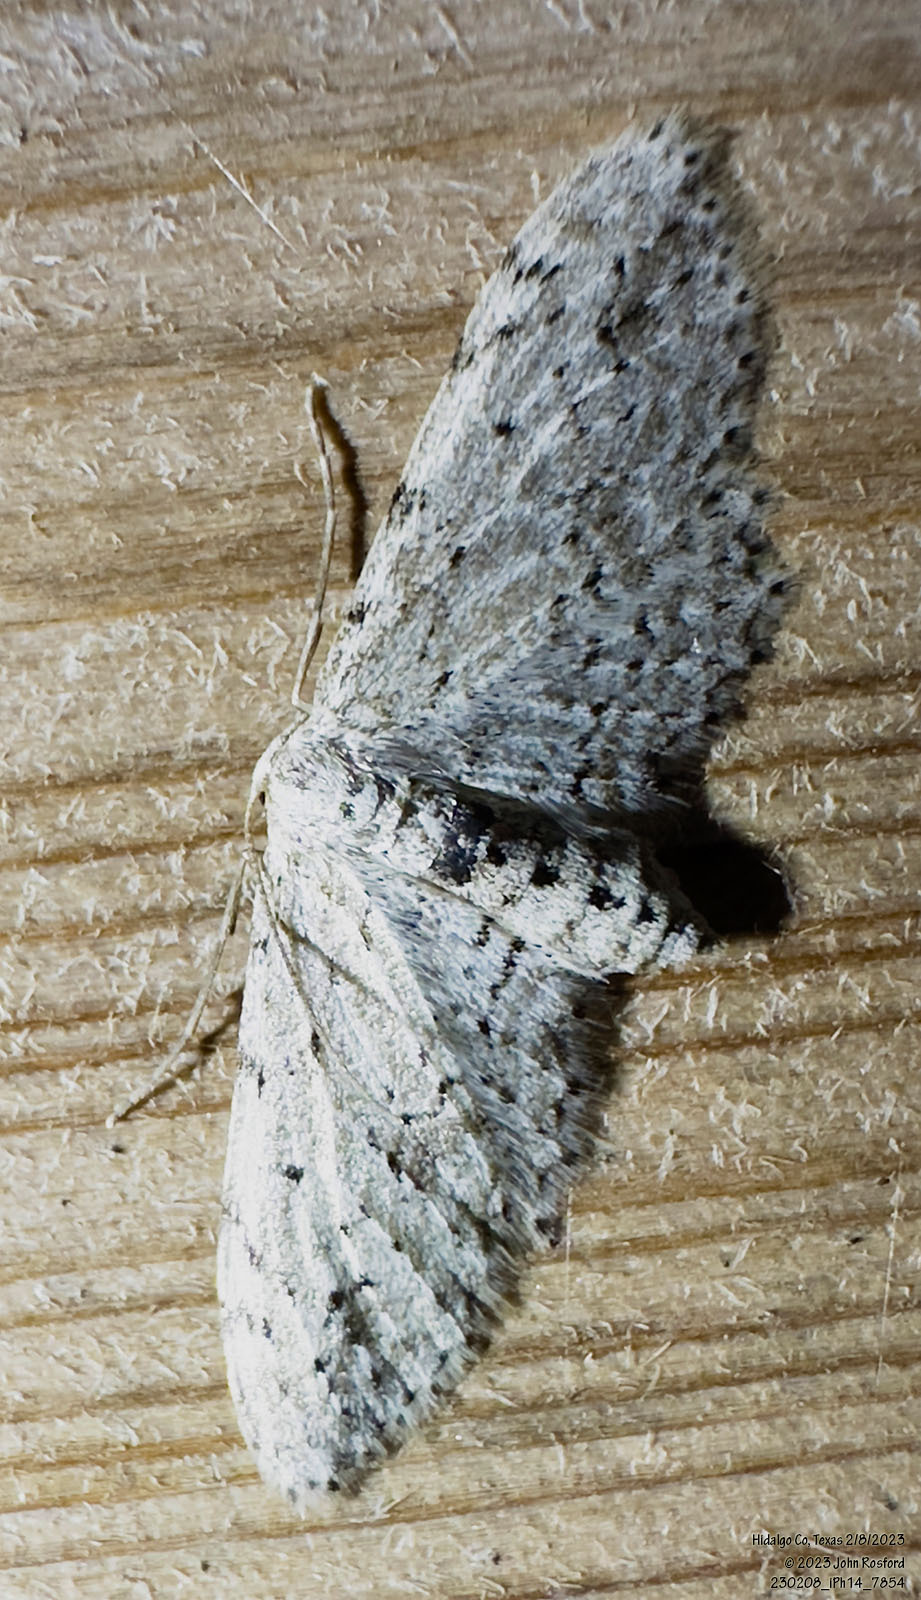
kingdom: Animalia
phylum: Arthropoda
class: Insecta
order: Lepidoptera
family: Geometridae
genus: Pimaphera
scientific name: Pimaphera sparsaria
